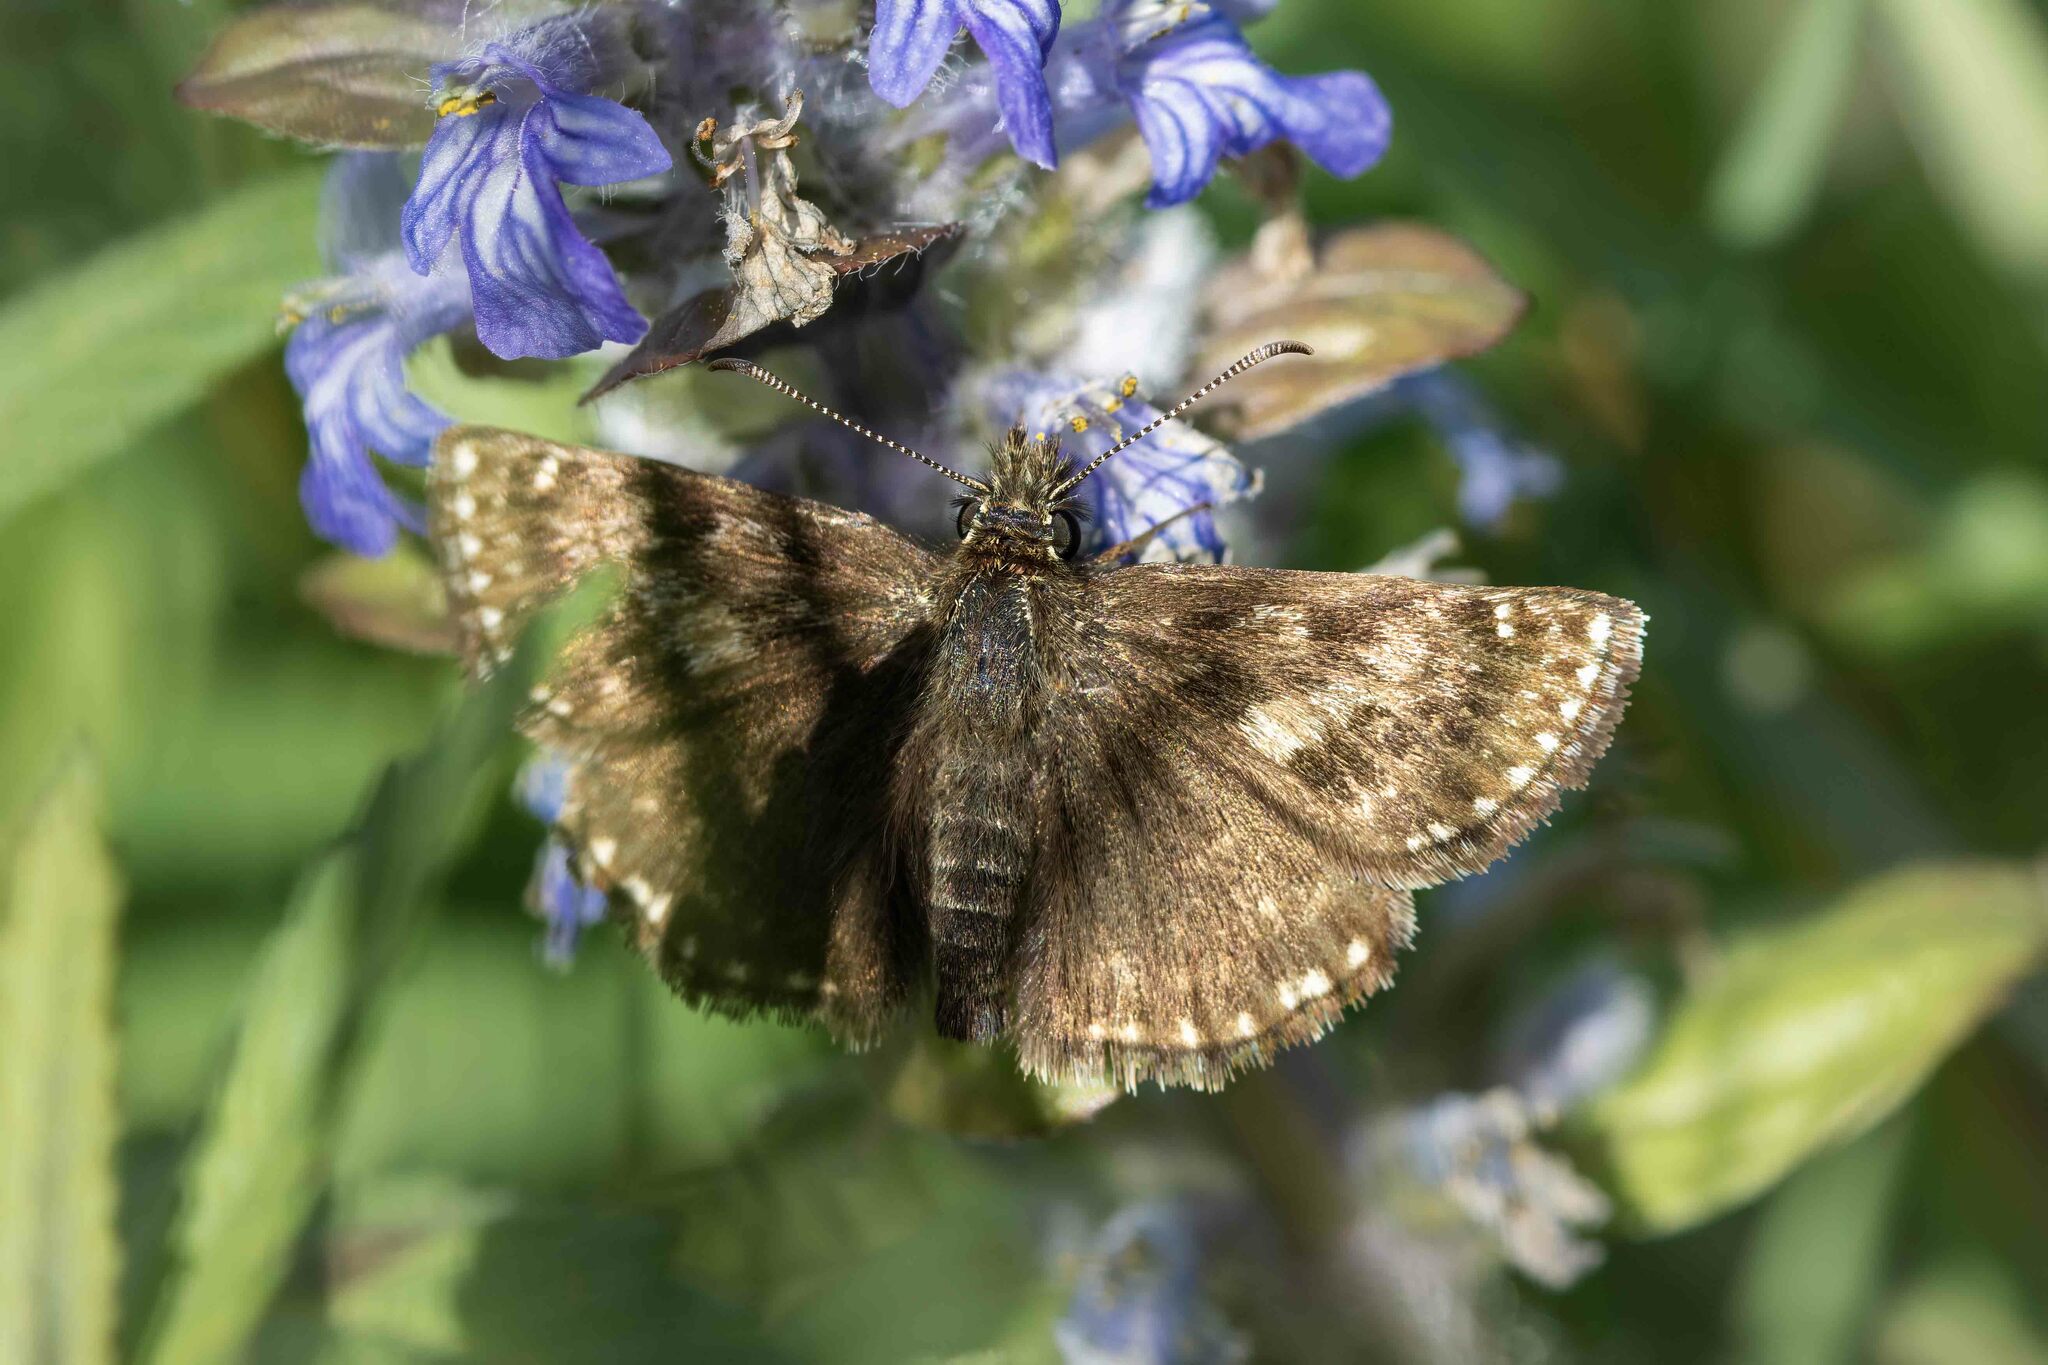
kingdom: Animalia
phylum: Arthropoda
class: Insecta
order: Lepidoptera
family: Hesperiidae
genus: Erynnis
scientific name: Erynnis tages
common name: Dingy skipper
